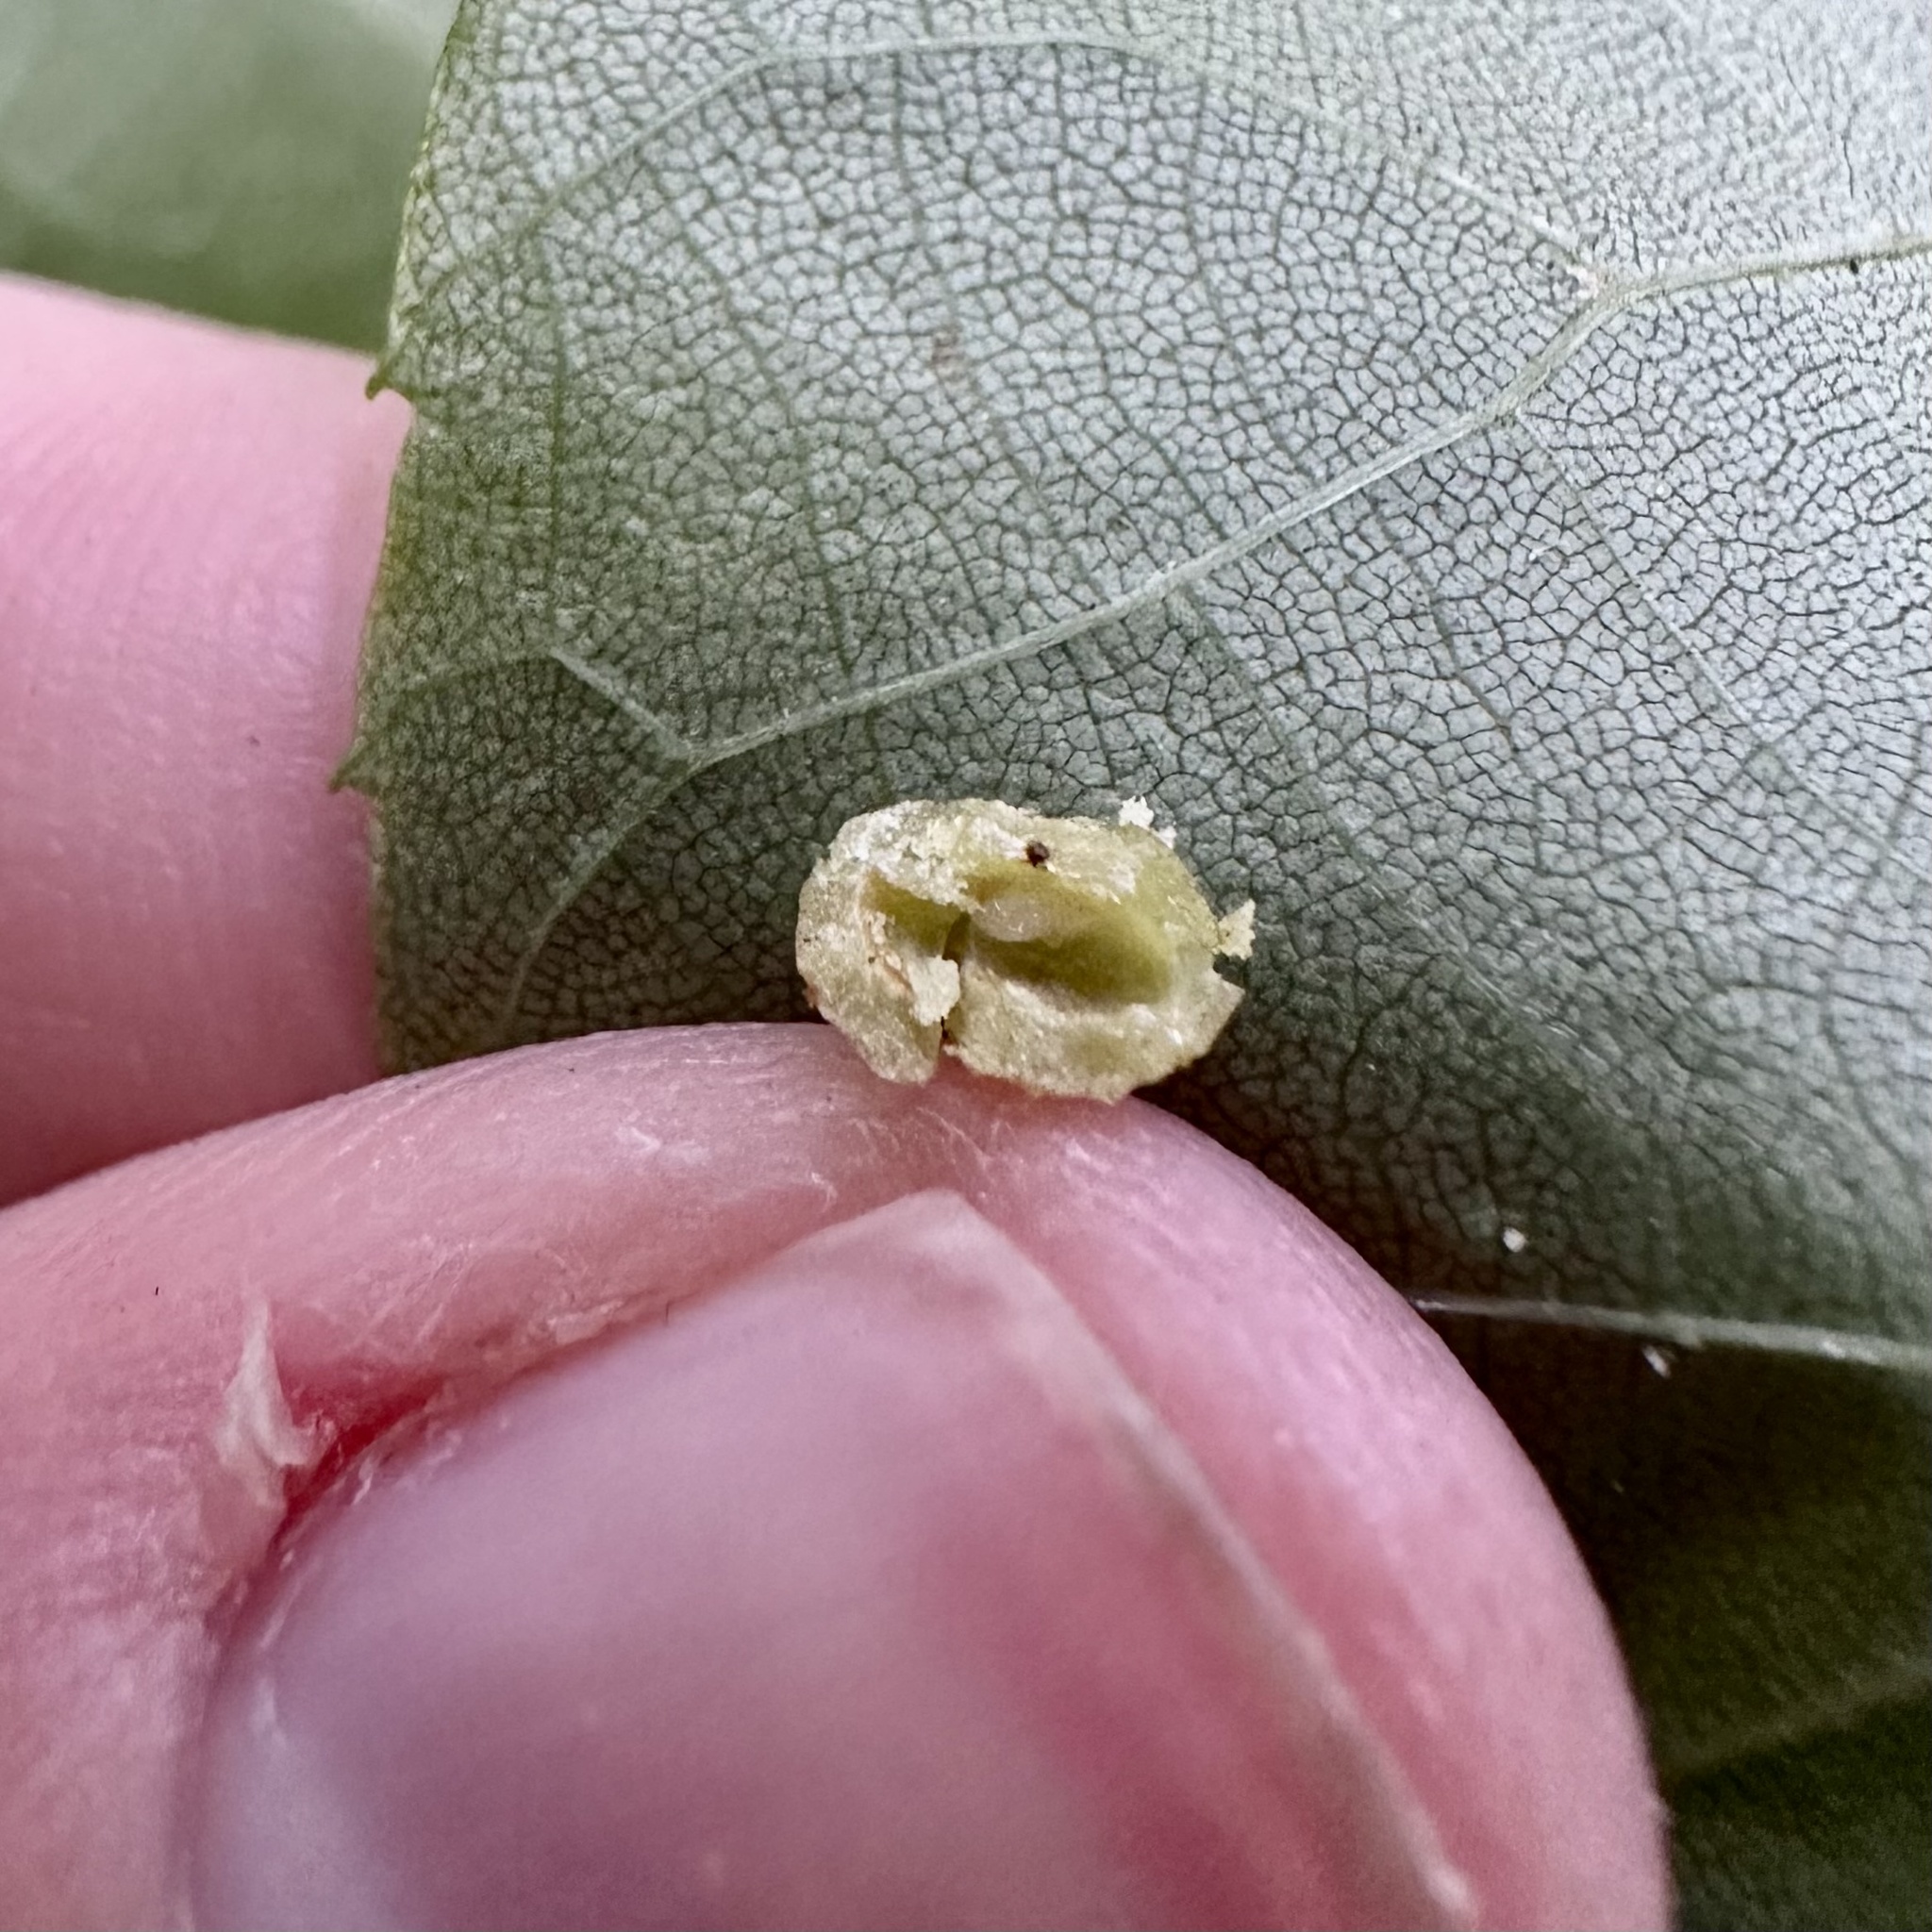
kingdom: Animalia
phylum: Arthropoda
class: Insecta
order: Diptera
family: Cecidomyiidae
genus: Caryomyia
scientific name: Caryomyia tuberculata
